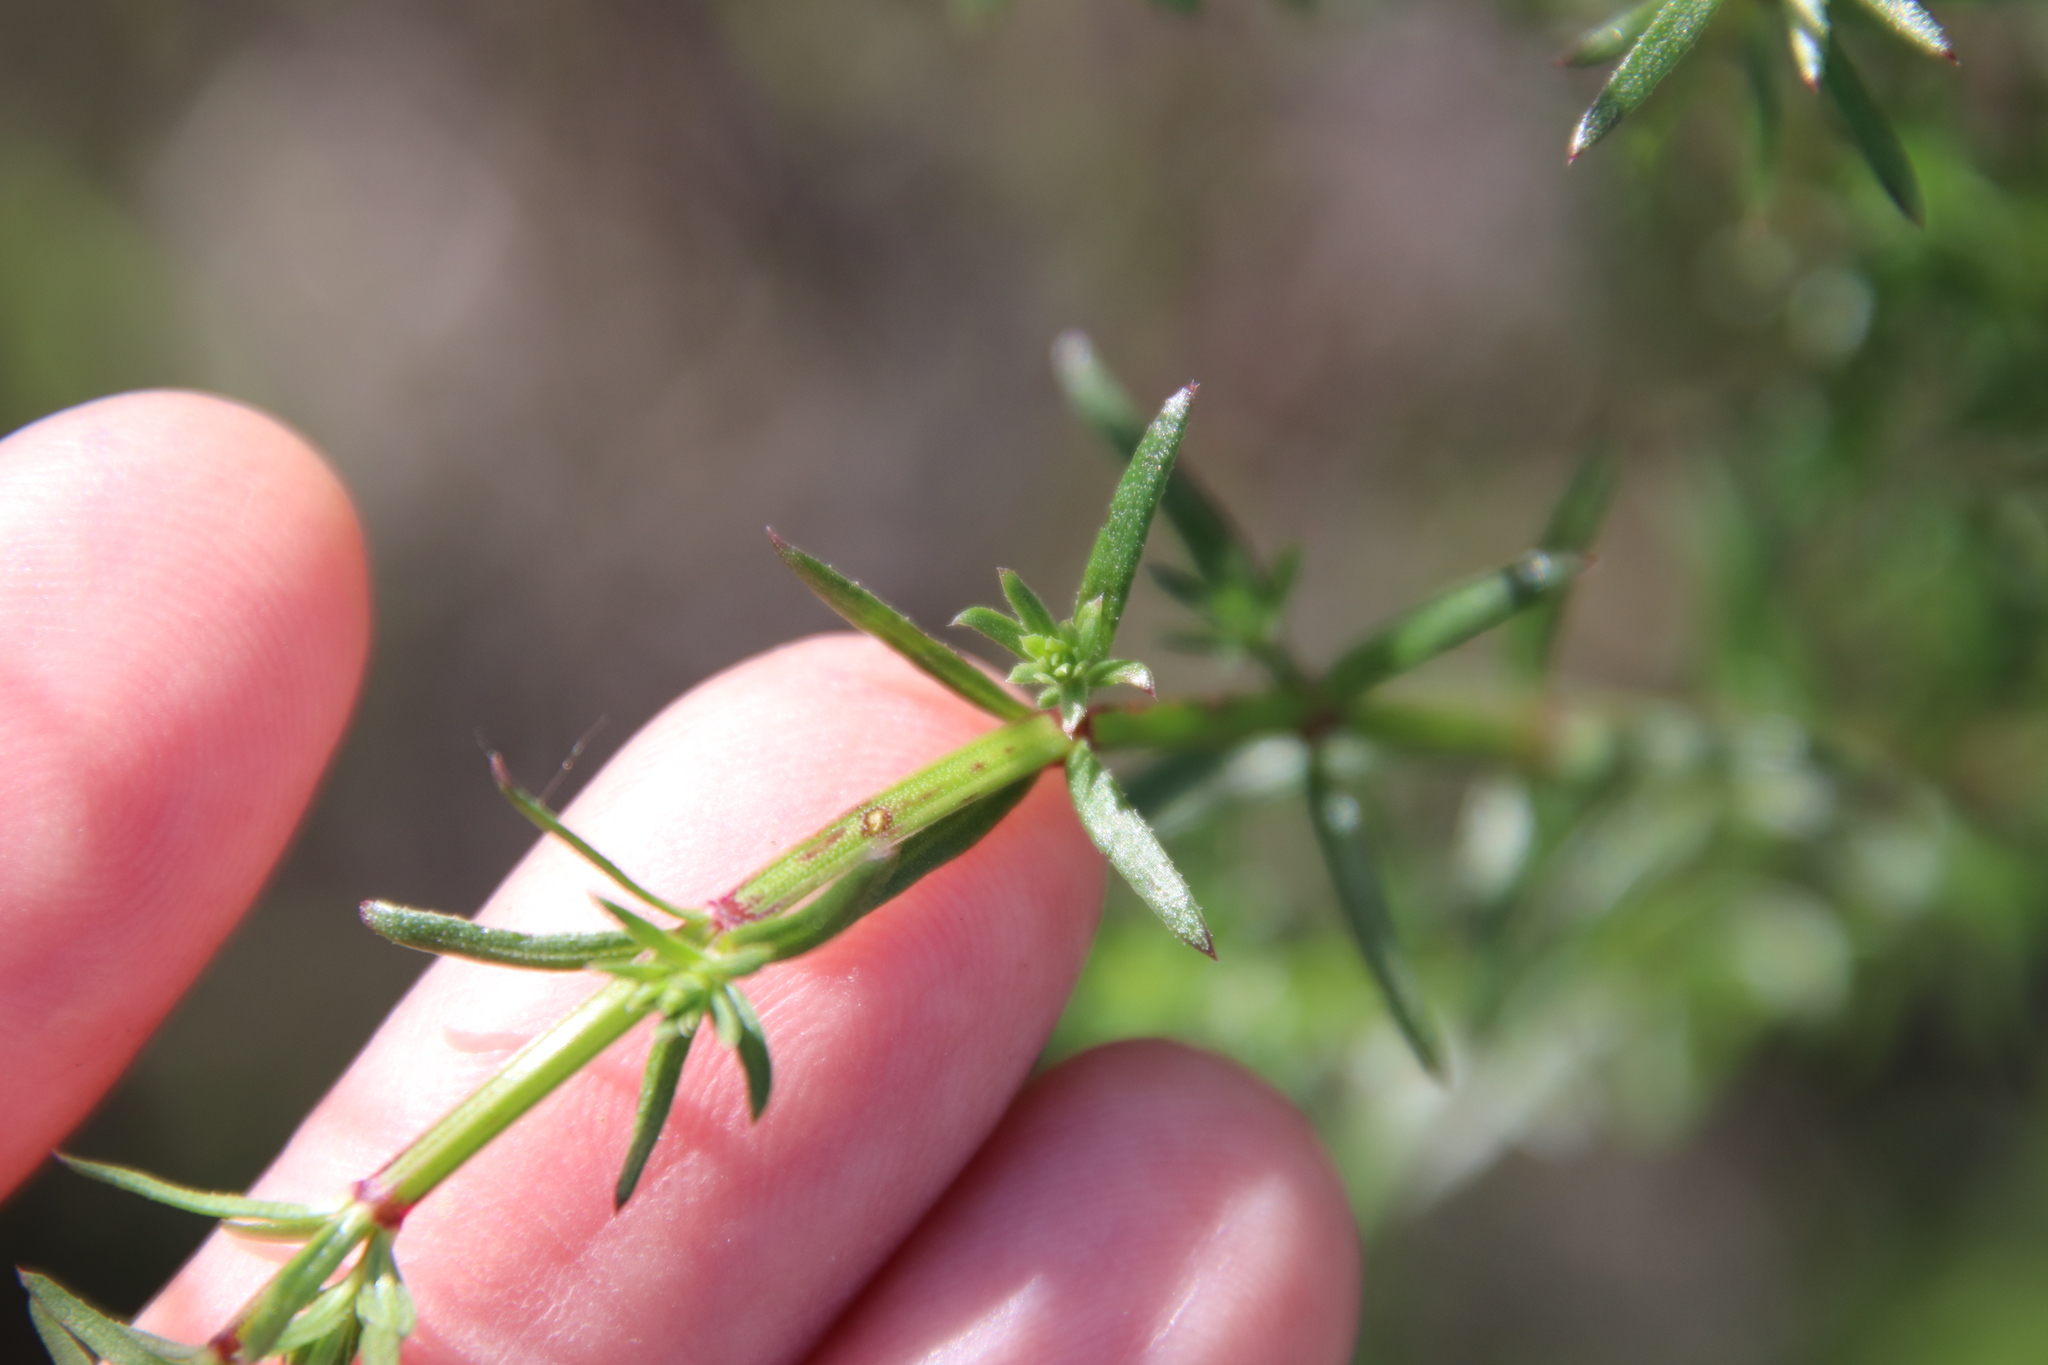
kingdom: Plantae
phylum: Tracheophyta
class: Magnoliopsida
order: Gentianales
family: Rubiaceae
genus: Galium
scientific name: Galium angustifolium
